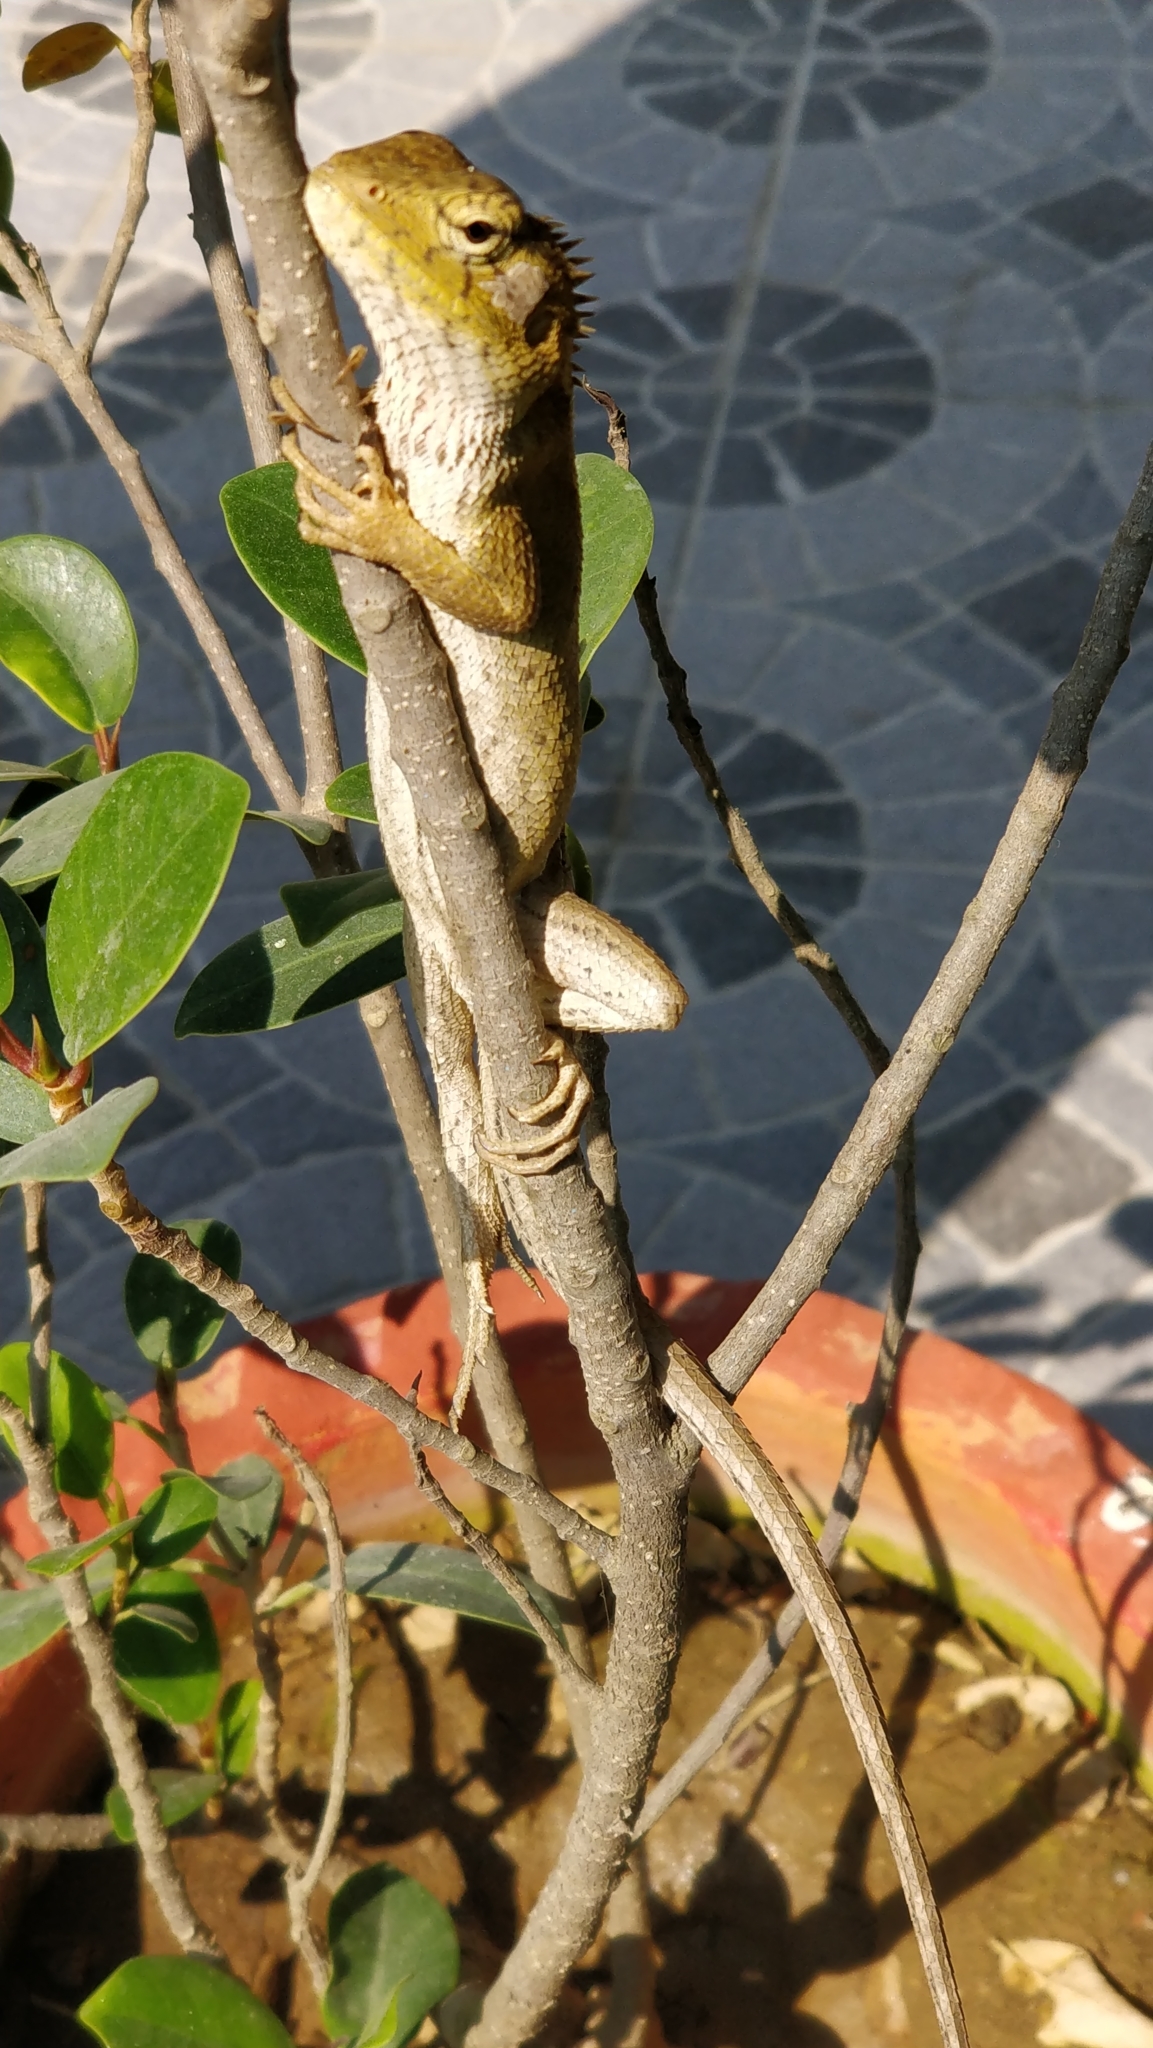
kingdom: Animalia
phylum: Chordata
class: Squamata
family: Agamidae
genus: Calotes
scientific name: Calotes versicolor
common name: Oriental garden lizard
